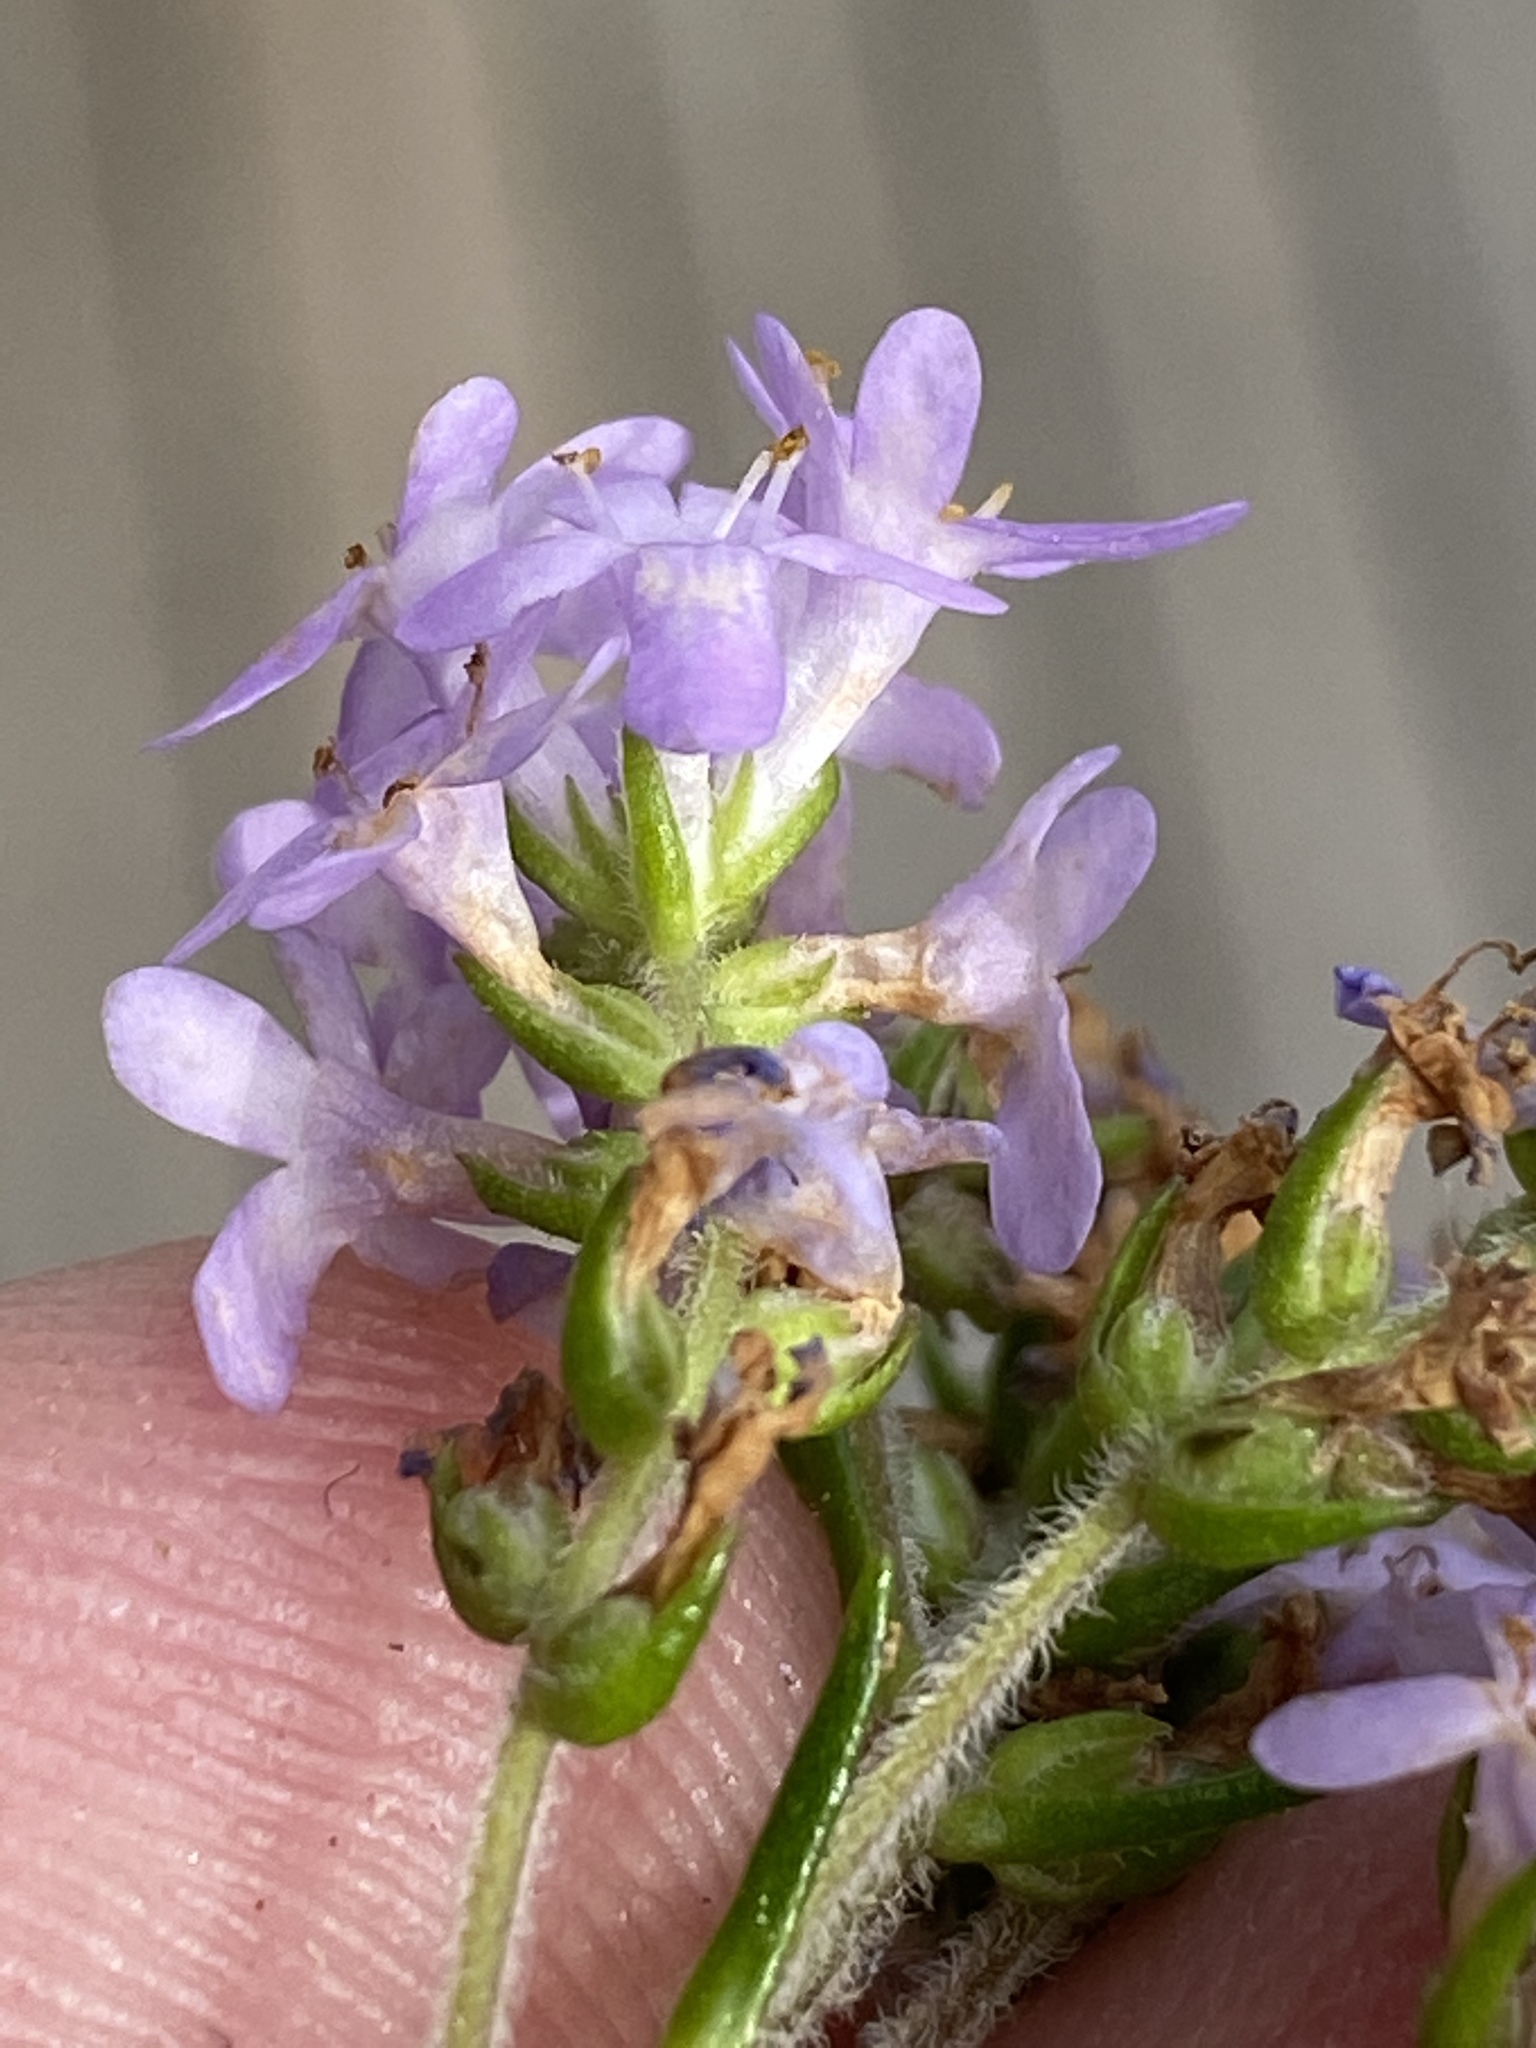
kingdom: Plantae
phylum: Tracheophyta
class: Magnoliopsida
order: Lamiales
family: Scrophulariaceae
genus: Selago
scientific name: Selago villicaulis
